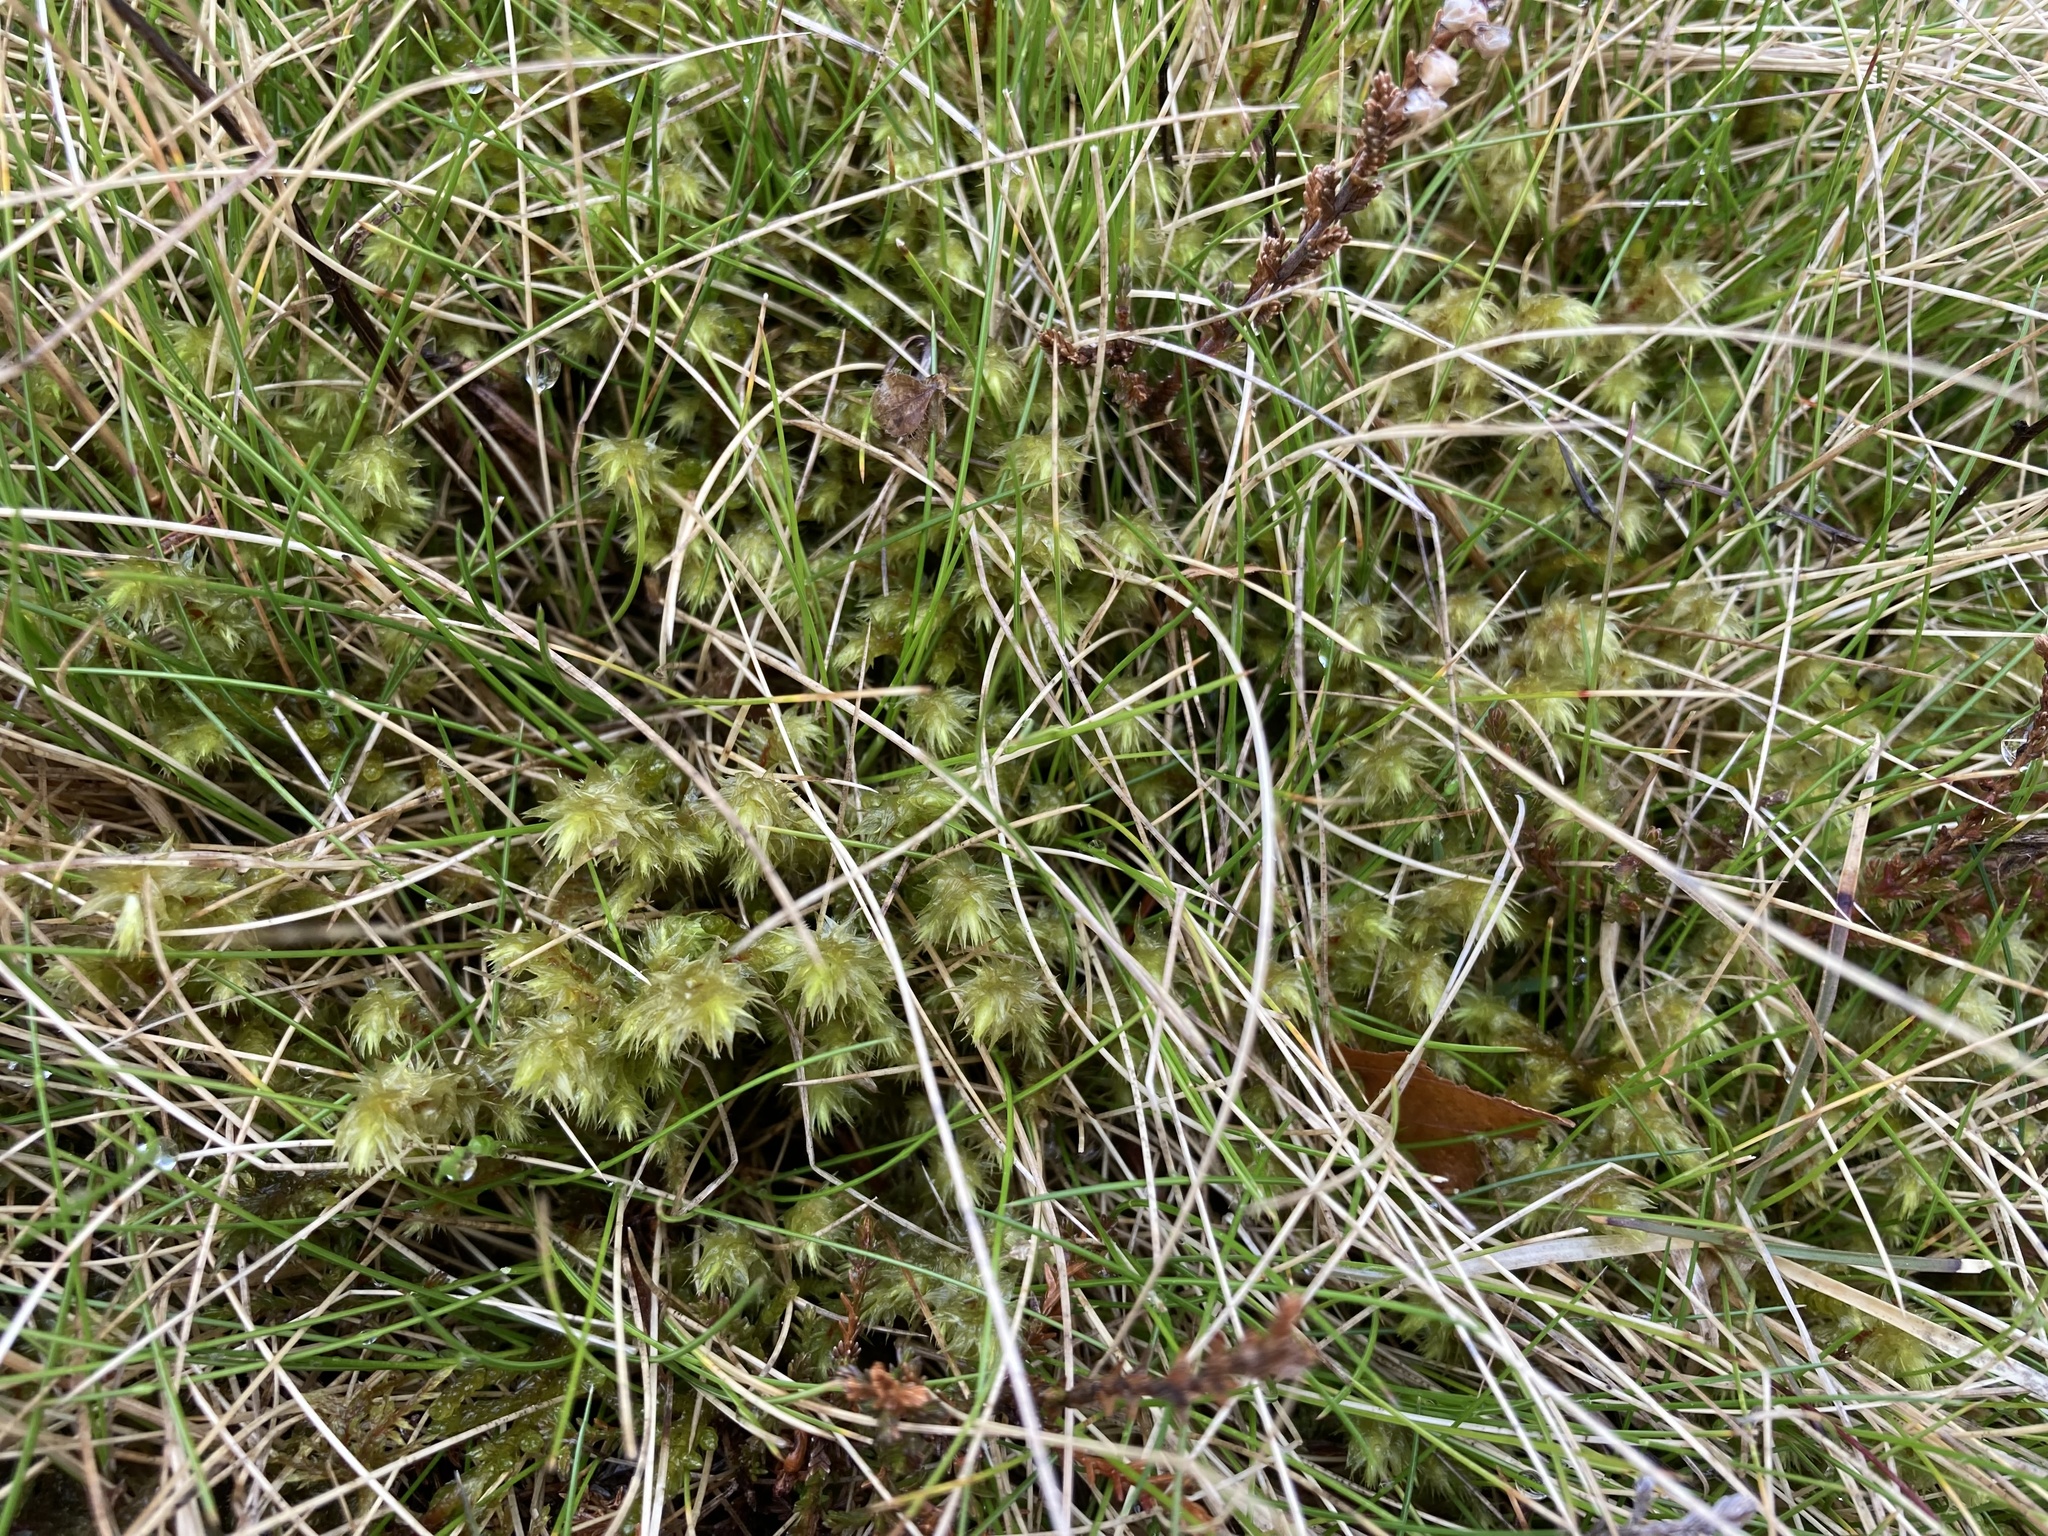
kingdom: Plantae
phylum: Bryophyta
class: Bryopsida
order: Hypnales
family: Hylocomiaceae
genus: Hylocomiadelphus
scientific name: Hylocomiadelphus triquetrus
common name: Rough goose neck moss
